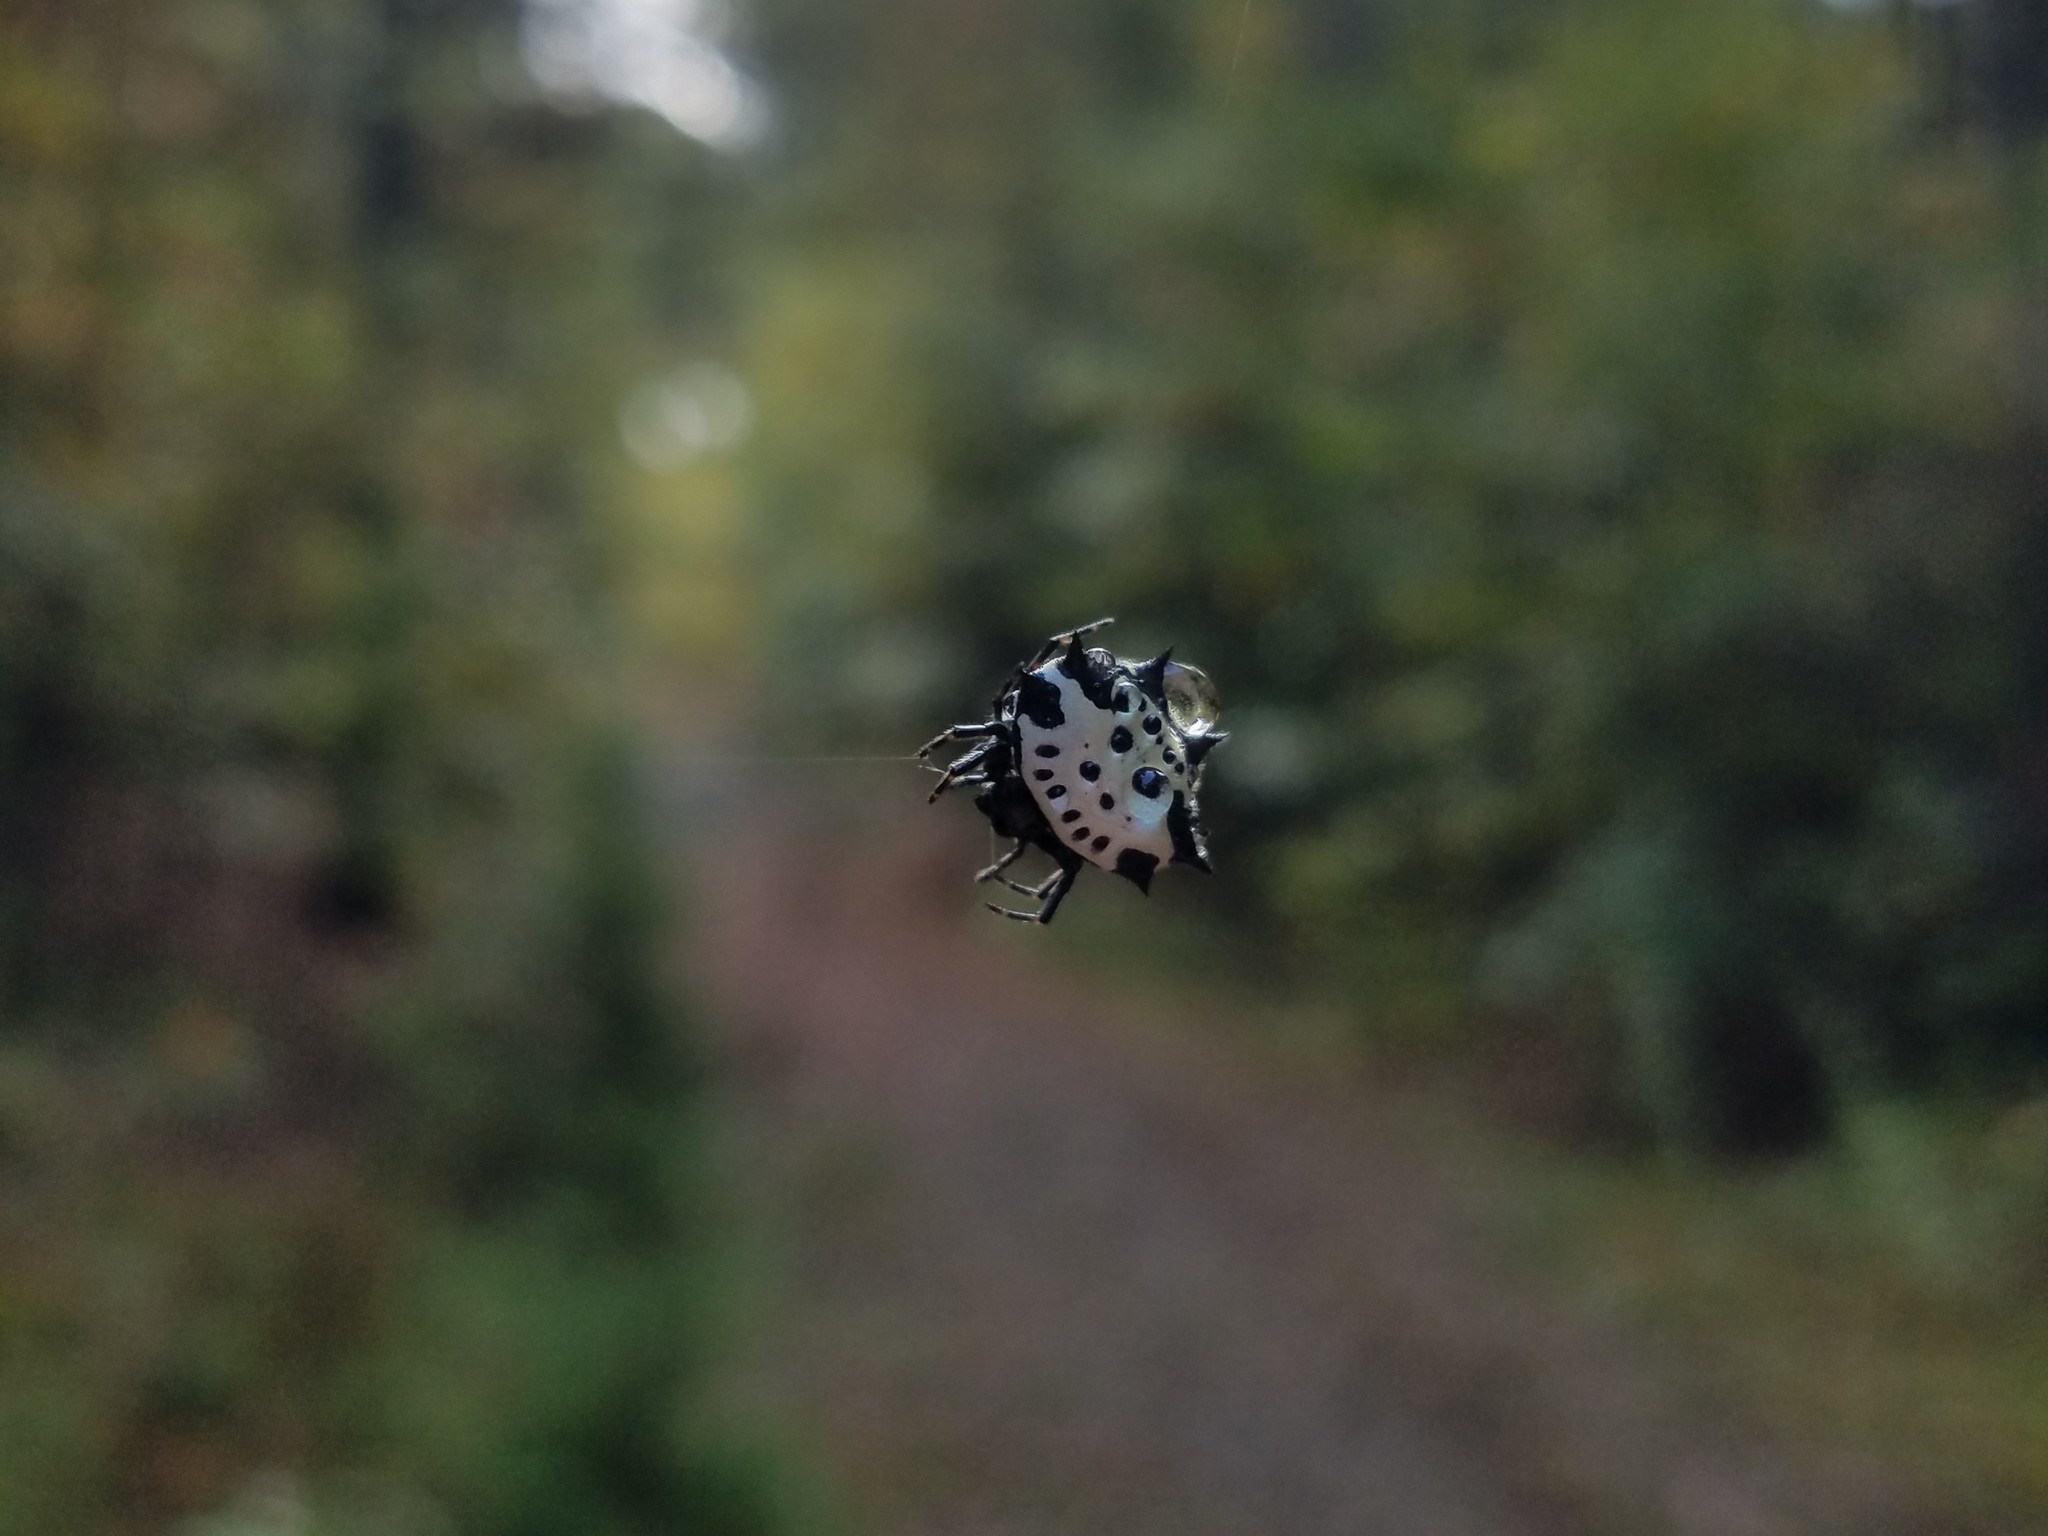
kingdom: Animalia
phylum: Arthropoda
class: Arachnida
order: Araneae
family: Araneidae
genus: Gasteracantha
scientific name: Gasteracantha cancriformis
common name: Orb weavers
